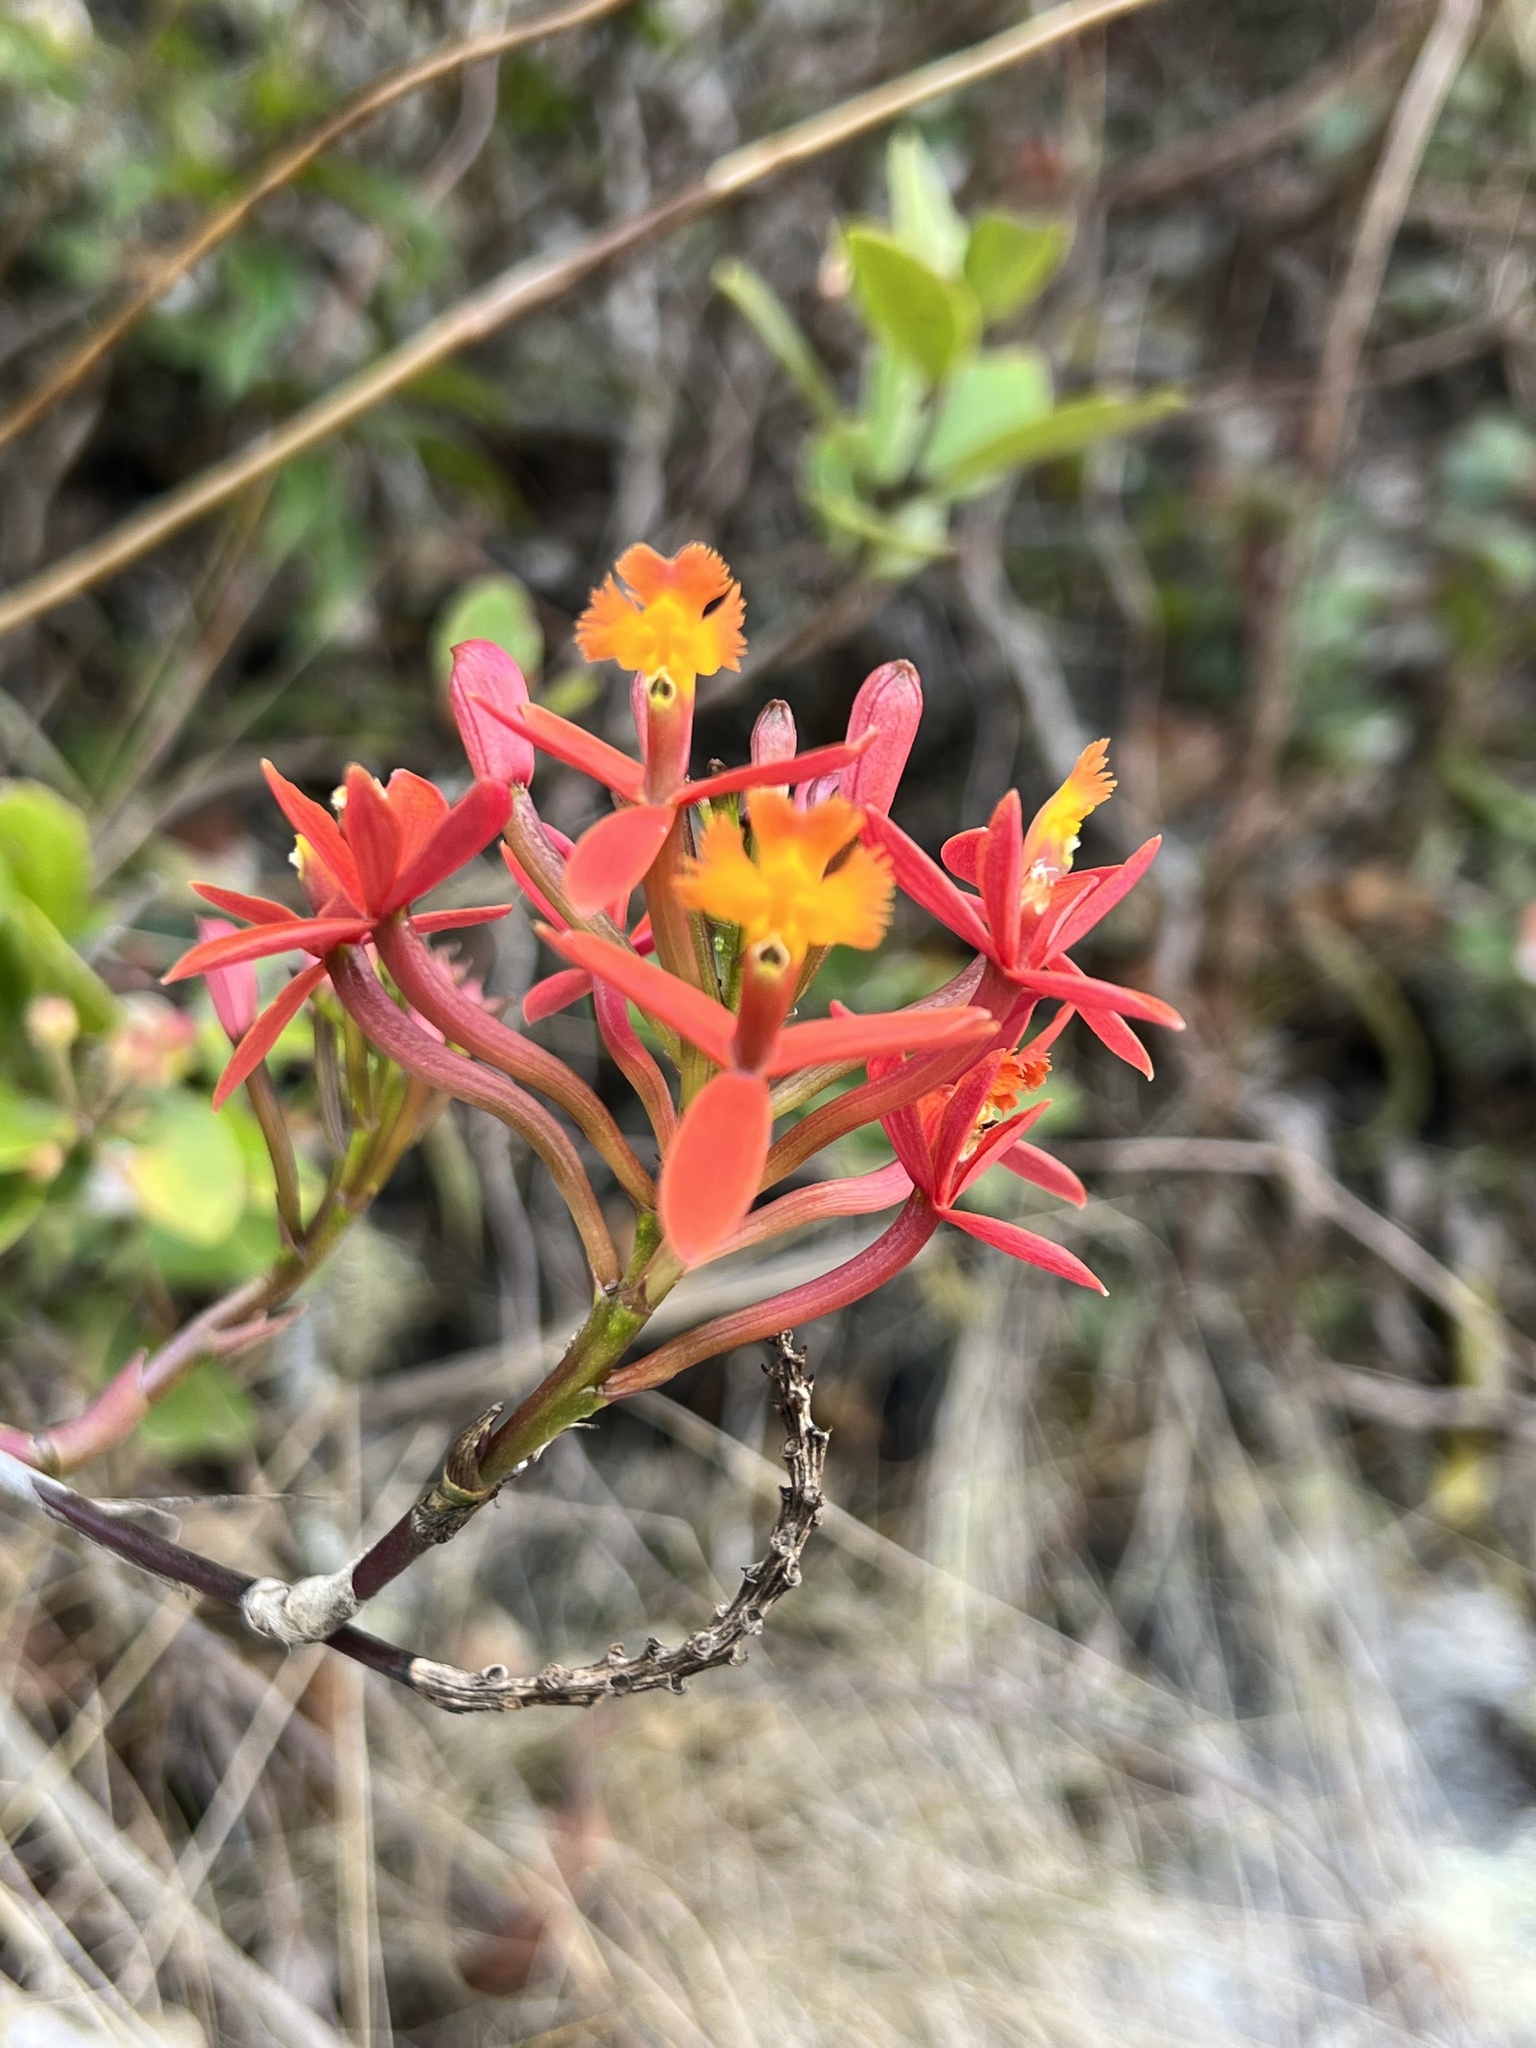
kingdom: Plantae
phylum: Tracheophyta
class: Liliopsida
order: Asparagales
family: Orchidaceae
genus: Epidendrum
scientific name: Epidendrum secundum
